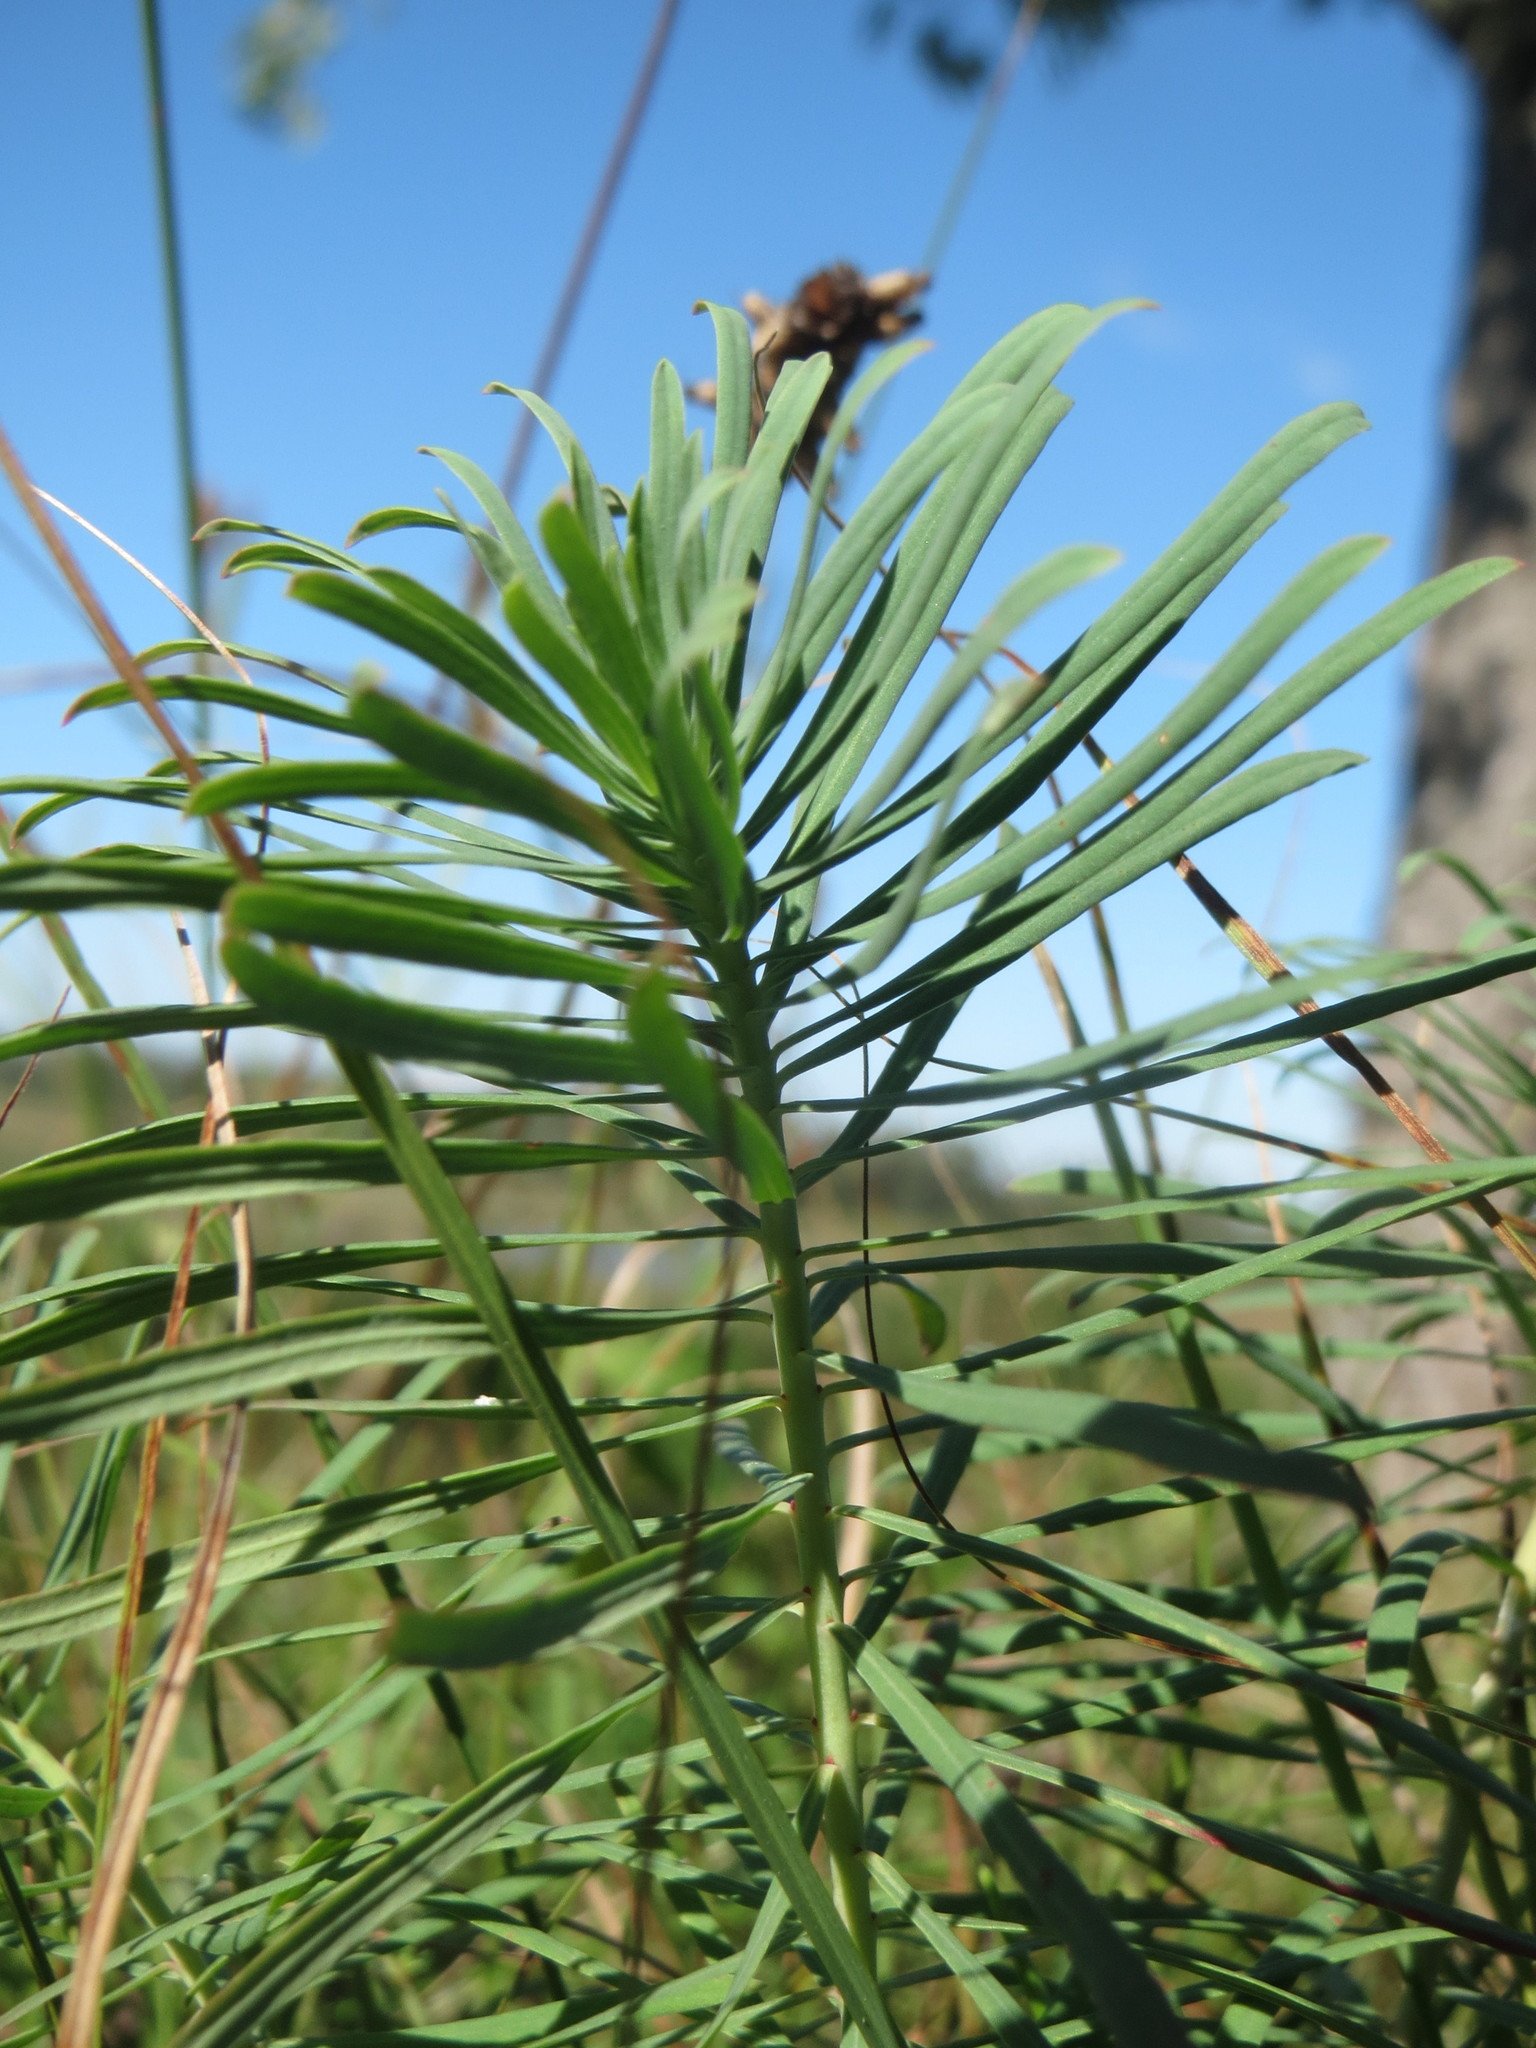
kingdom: Plantae
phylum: Tracheophyta
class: Magnoliopsida
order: Malpighiales
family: Euphorbiaceae
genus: Euphorbia
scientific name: Euphorbia cyparissias
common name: Cypress spurge
